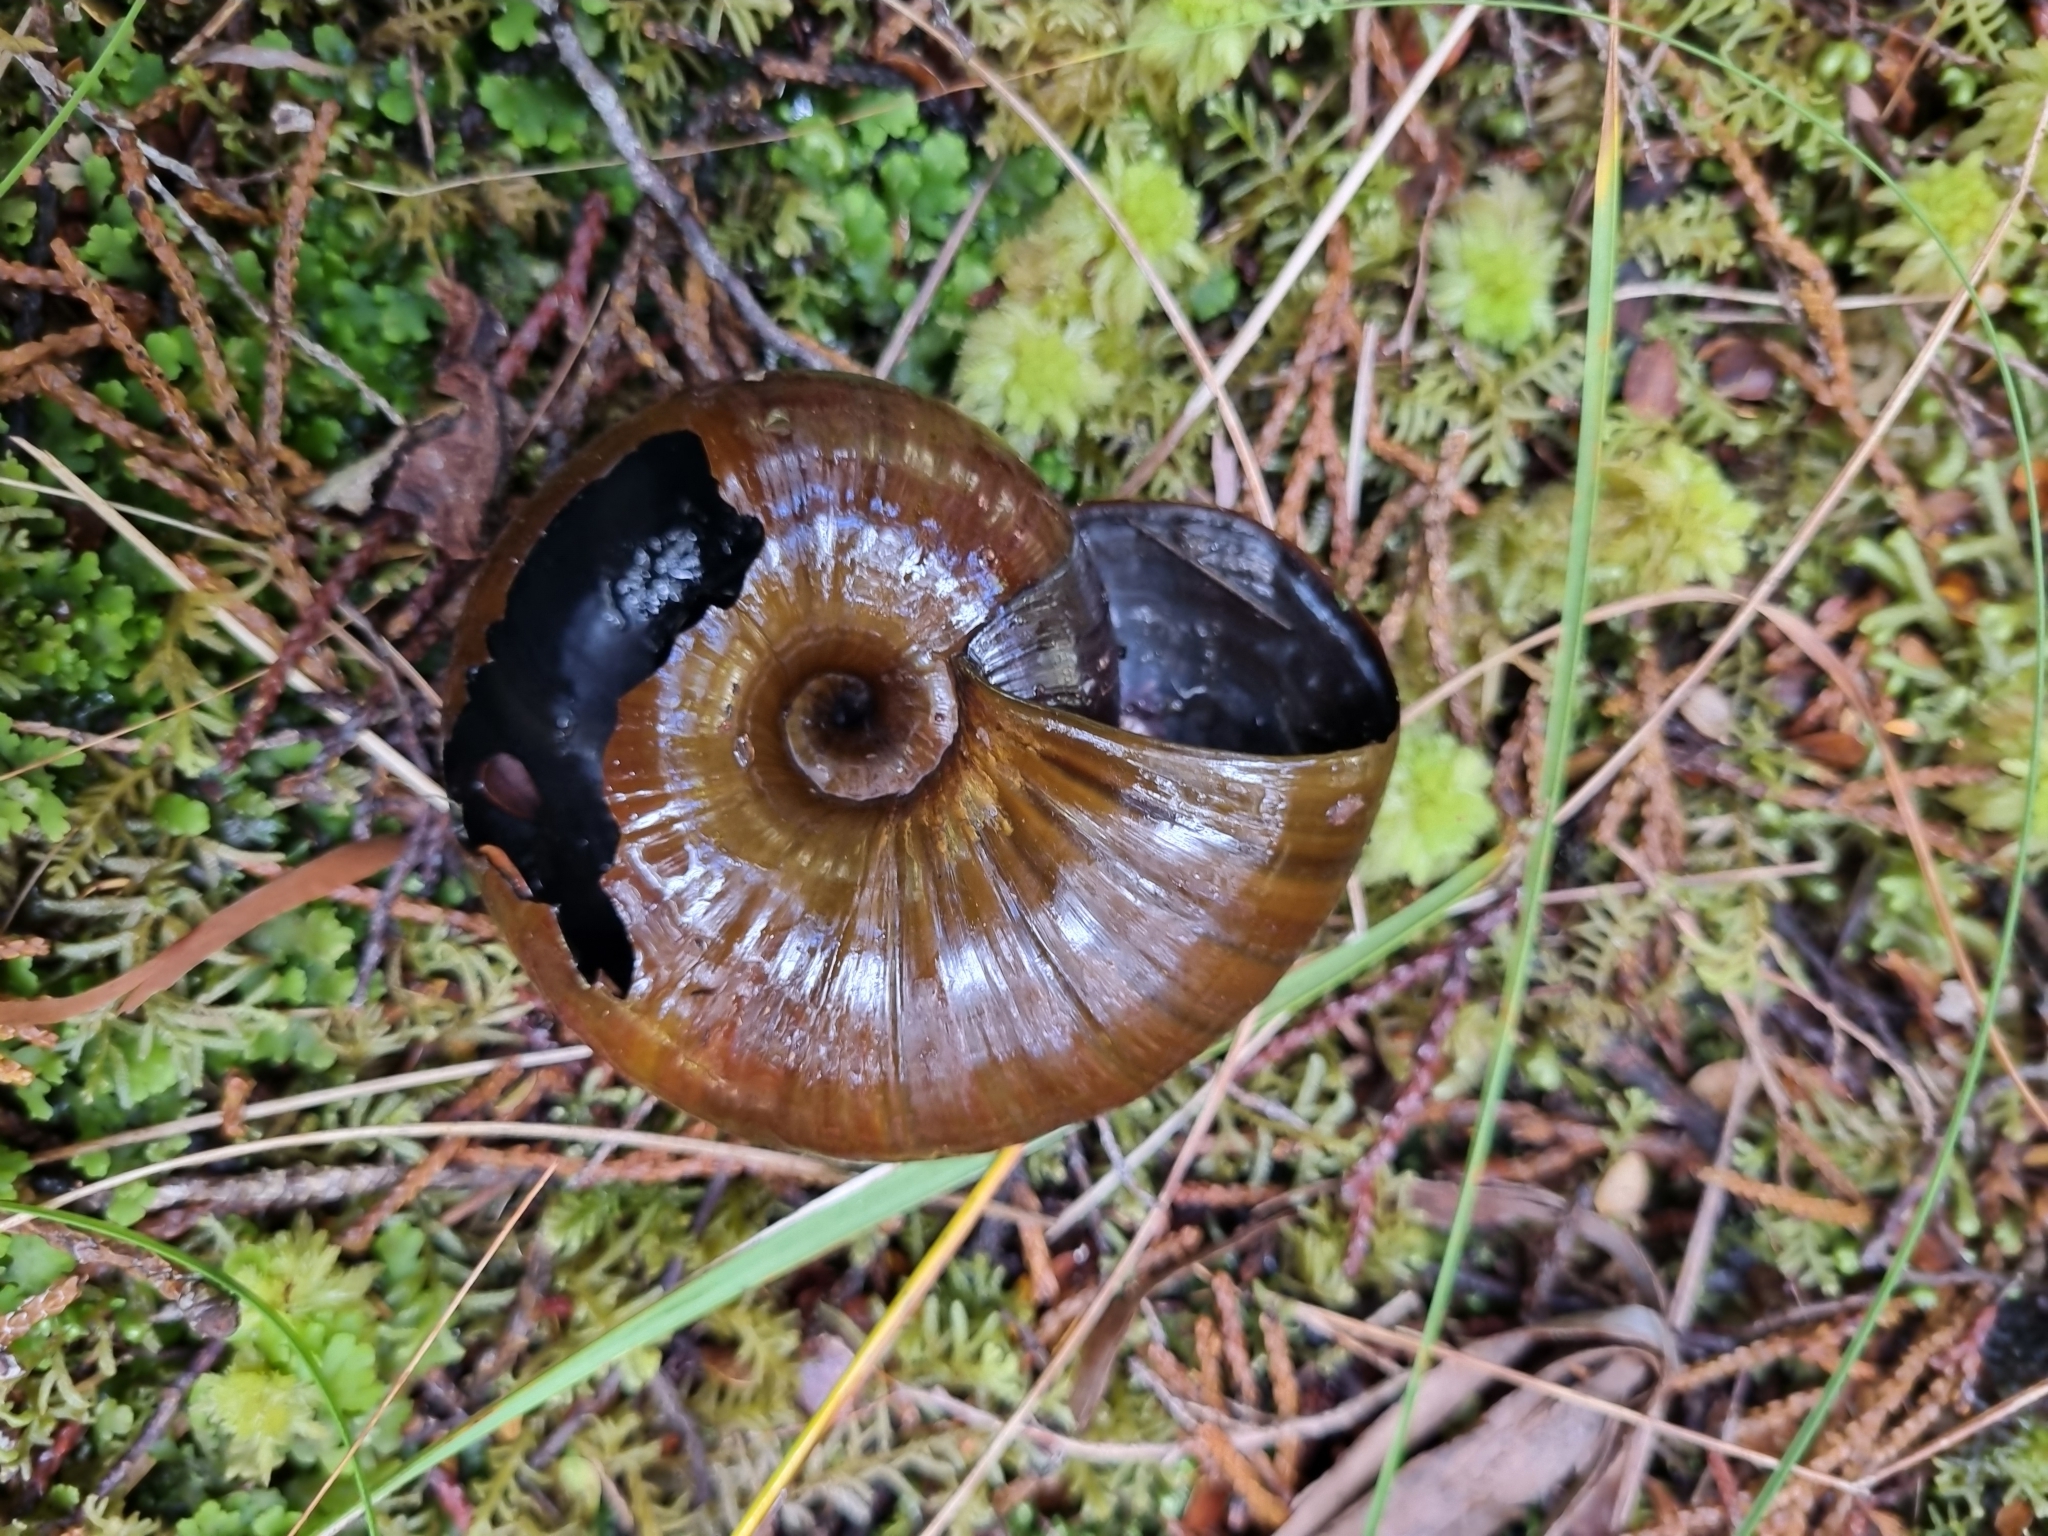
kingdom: Animalia
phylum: Mollusca
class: Gastropoda
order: Stylommatophora
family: Rhytididae
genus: Powelliphanta
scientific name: Powelliphanta superba
